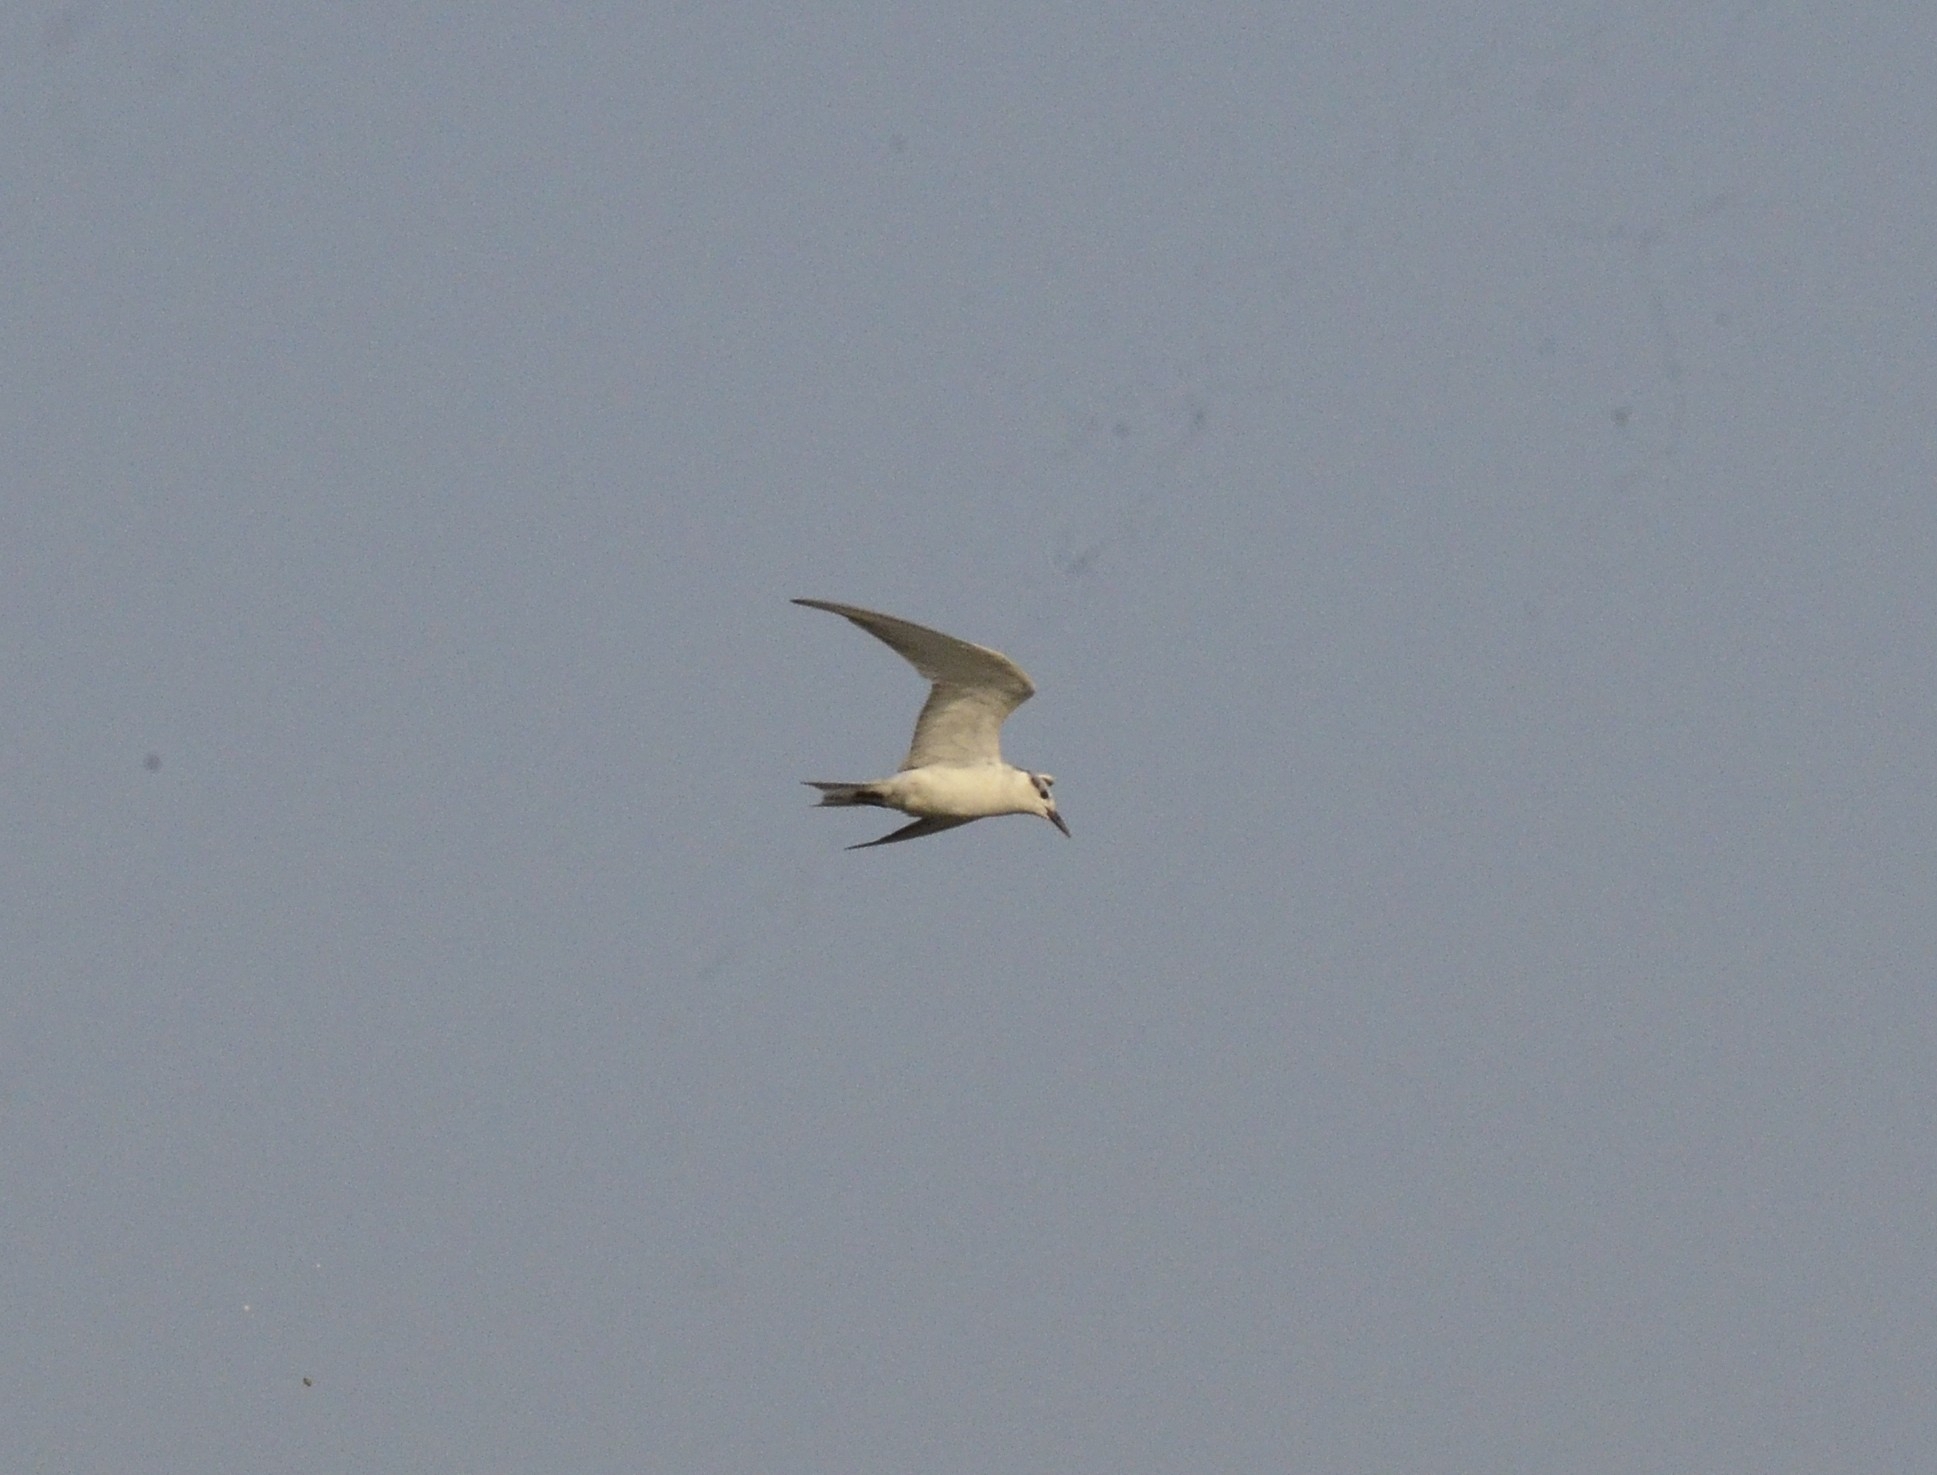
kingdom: Animalia
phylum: Chordata
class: Aves
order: Charadriiformes
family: Laridae
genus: Chlidonias
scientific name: Chlidonias hybrida
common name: Whiskered tern
